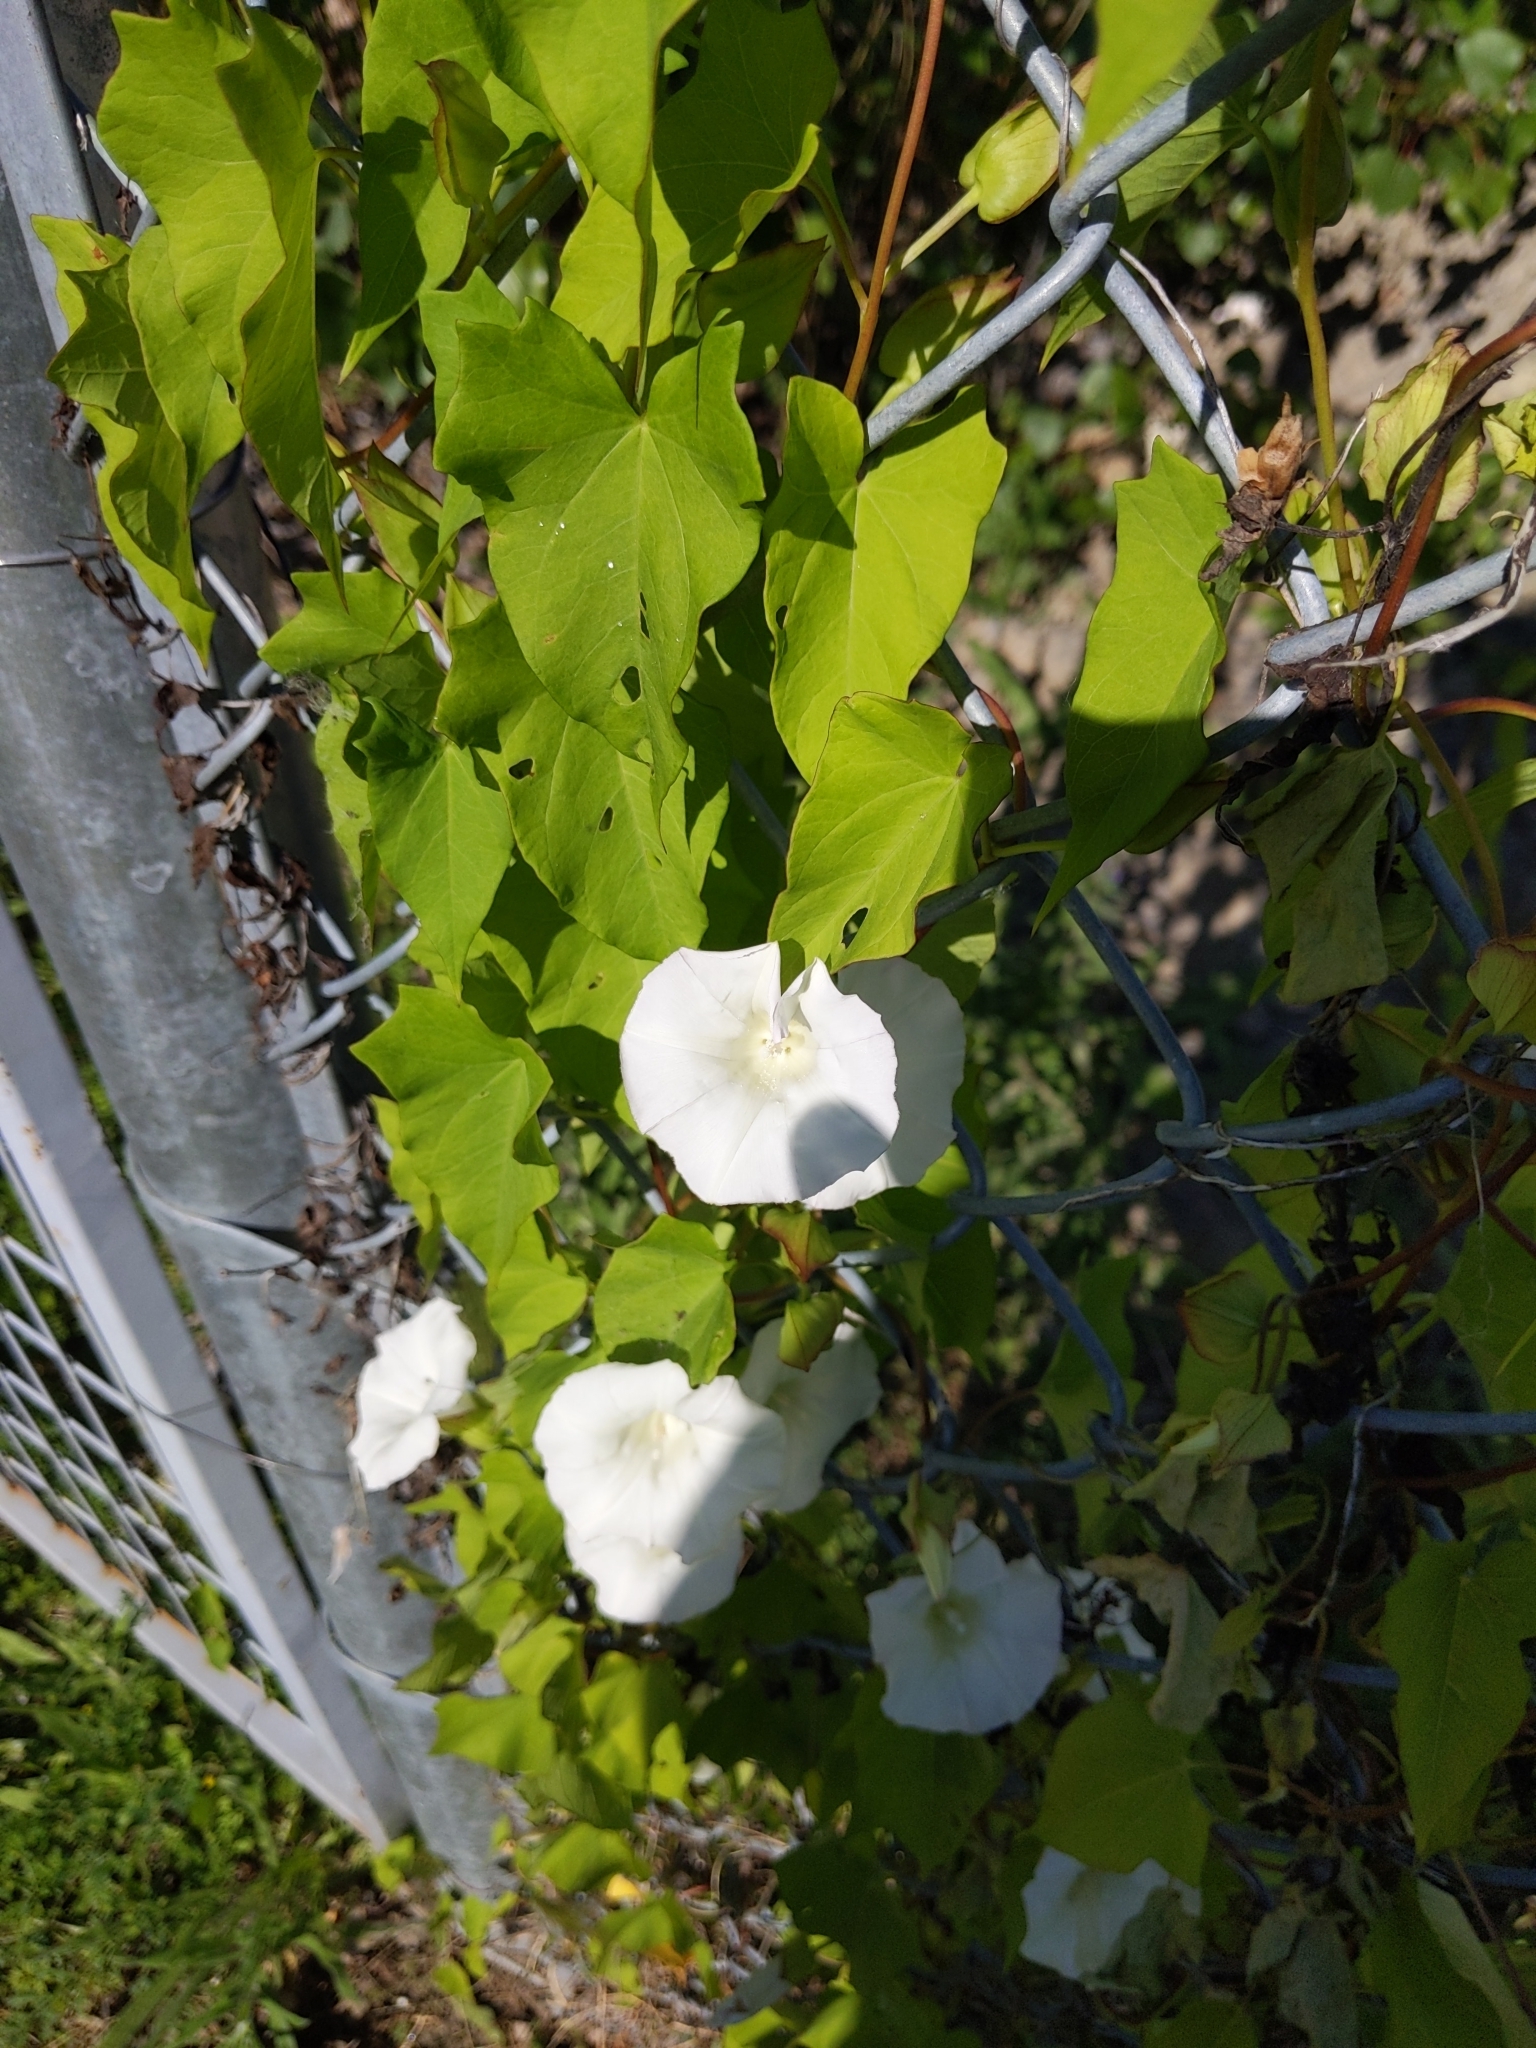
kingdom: Plantae
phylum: Tracheophyta
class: Magnoliopsida
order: Solanales
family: Convolvulaceae
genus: Calystegia
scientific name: Calystegia sepium
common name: Hedge bindweed
